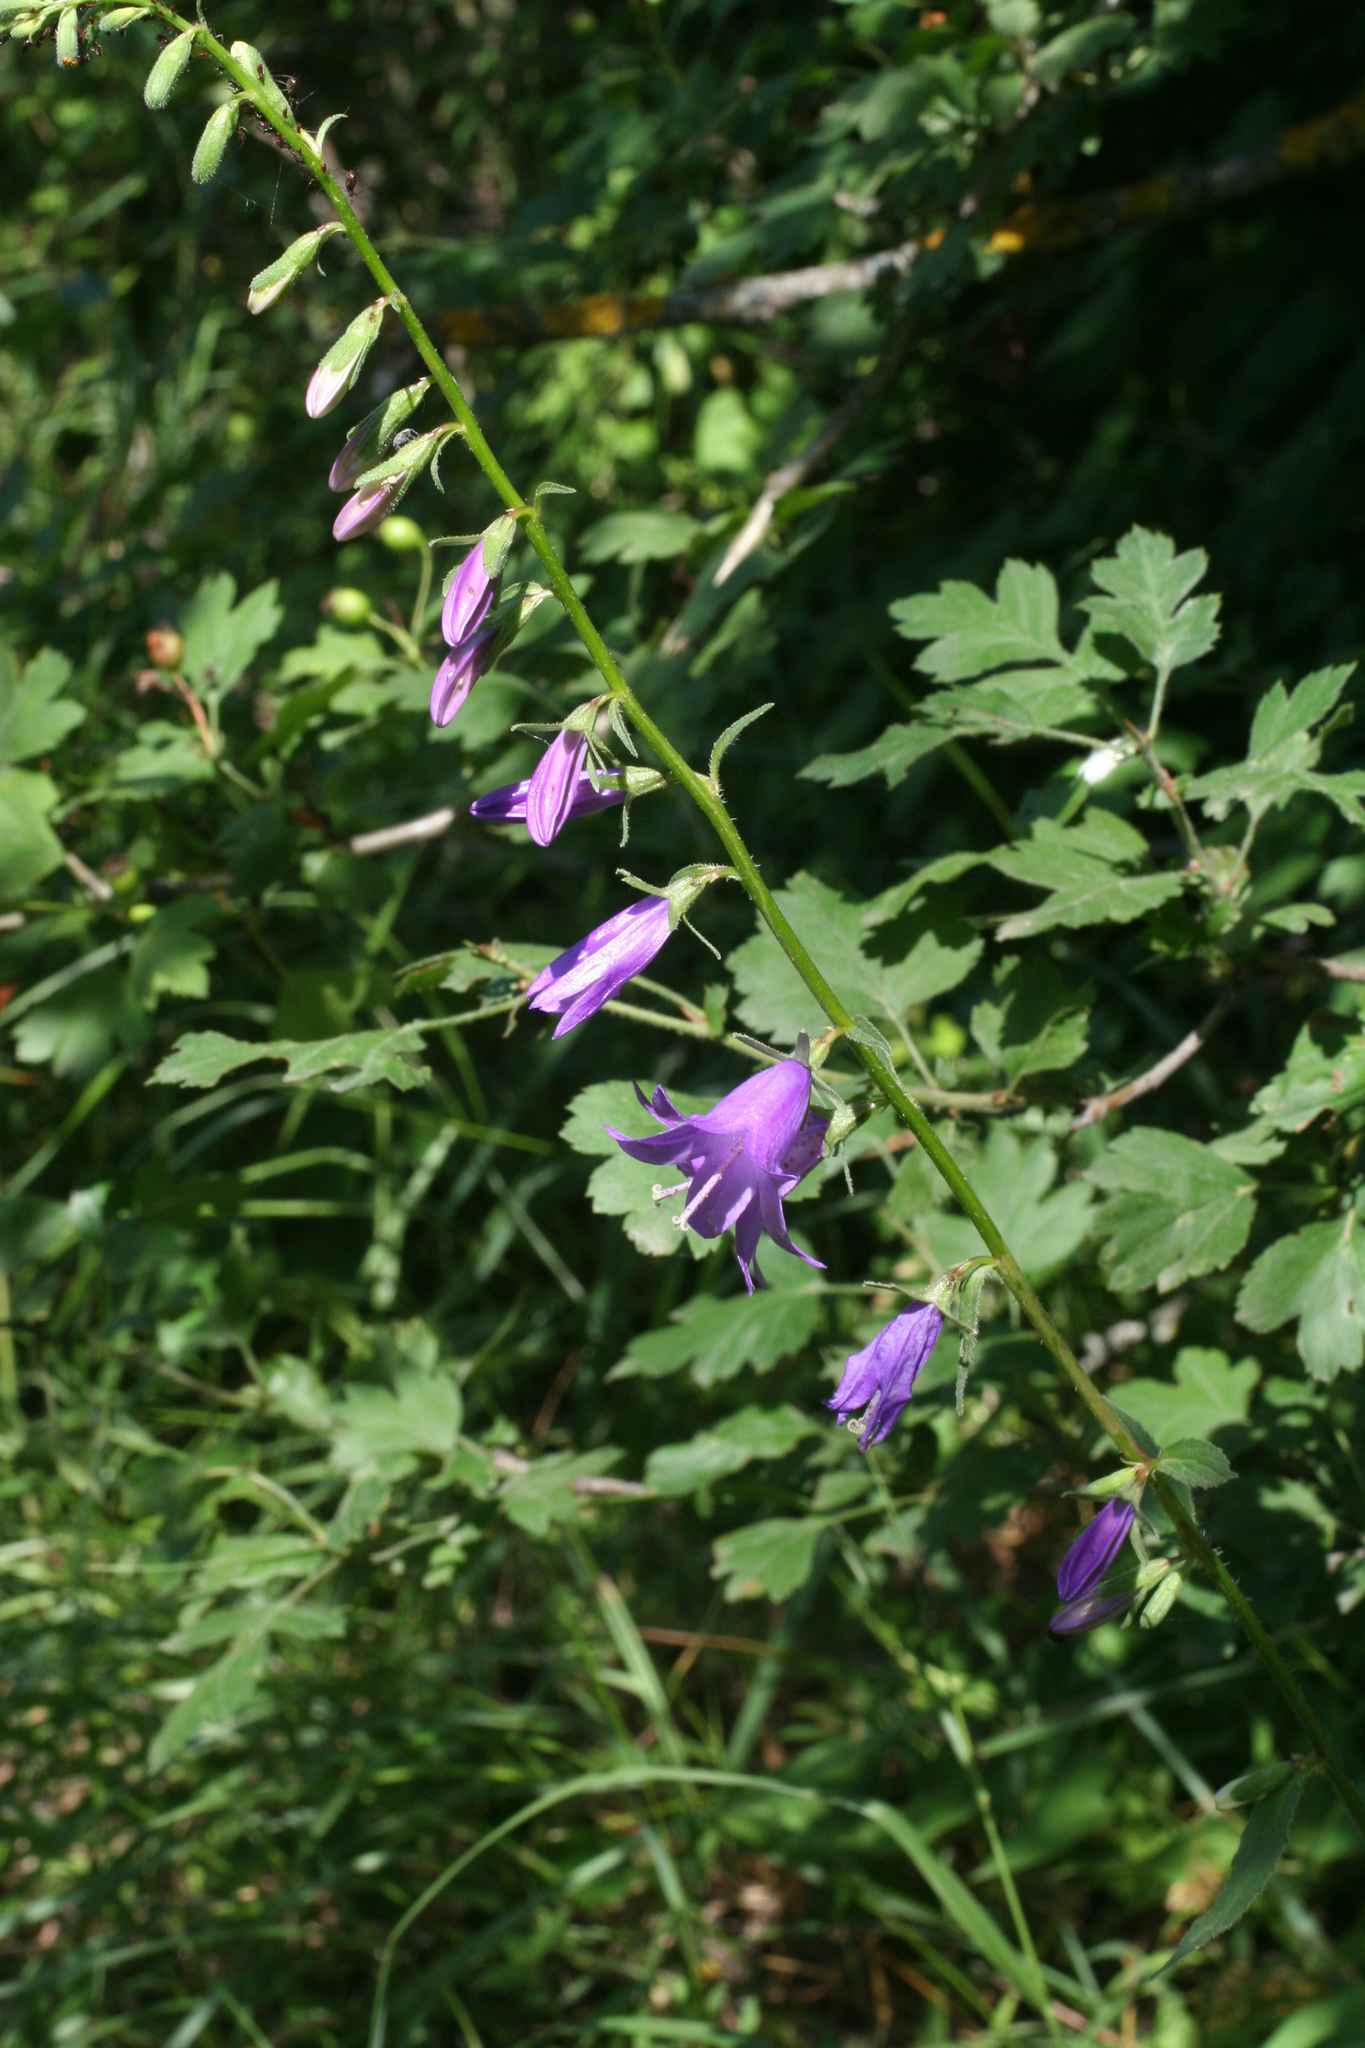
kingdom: Plantae
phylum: Tracheophyta
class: Magnoliopsida
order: Asterales
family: Campanulaceae
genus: Campanula
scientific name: Campanula rapunculoides
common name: Creeping bellflower
